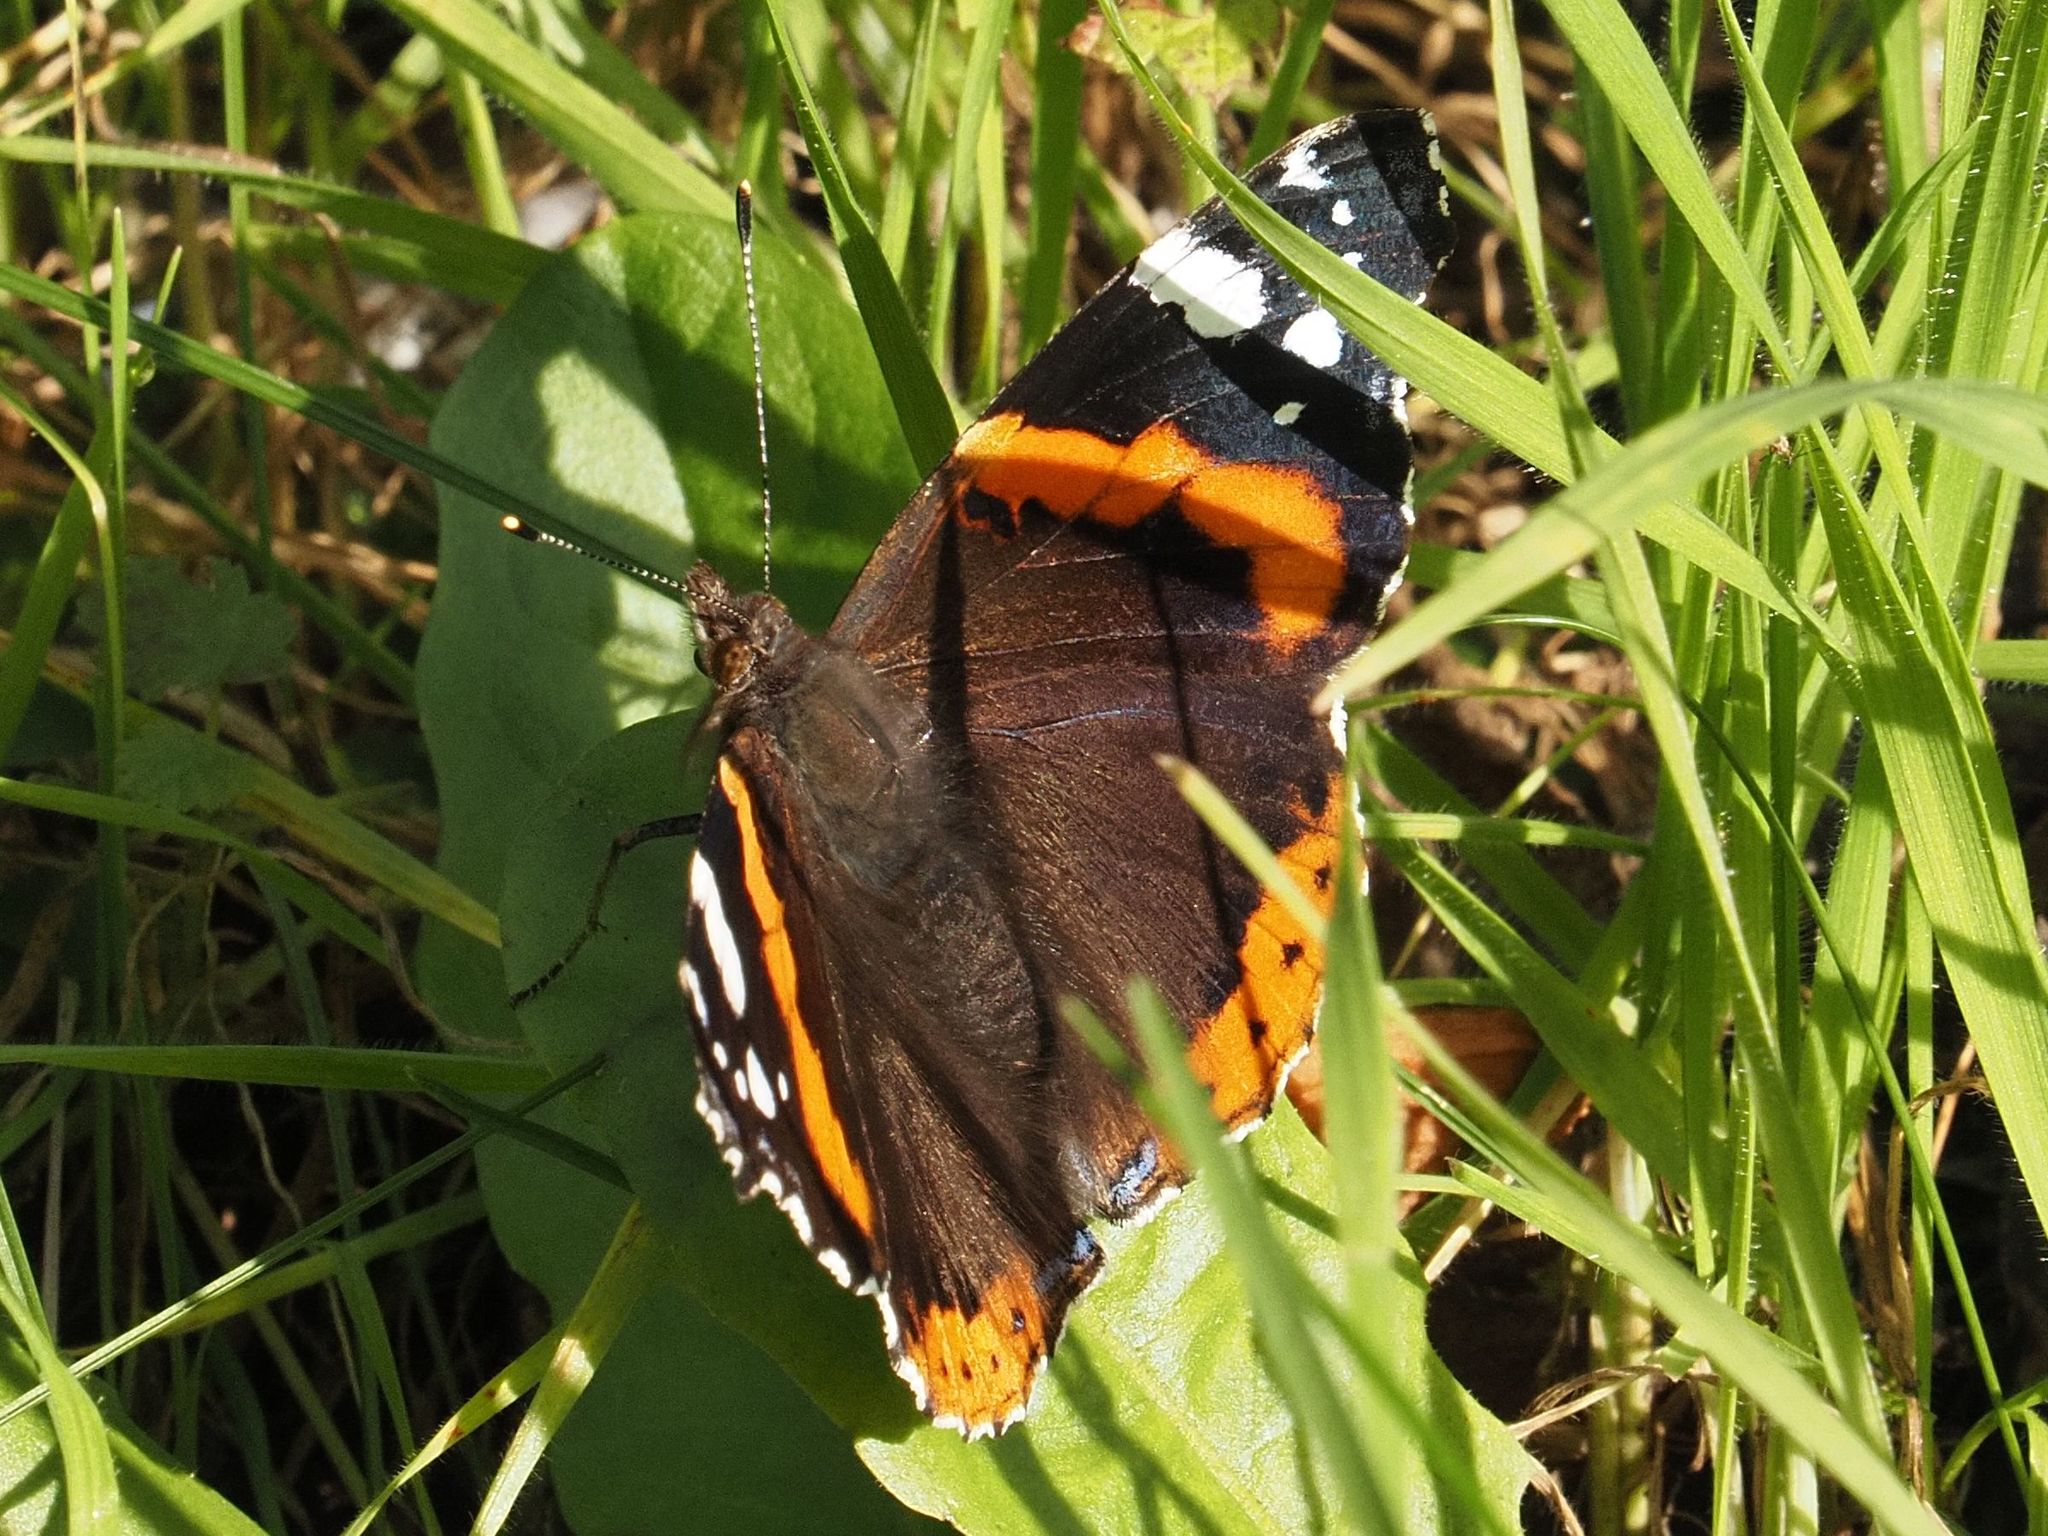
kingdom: Animalia
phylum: Arthropoda
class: Insecta
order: Lepidoptera
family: Nymphalidae
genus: Vanessa
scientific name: Vanessa atalanta
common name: Red admiral
